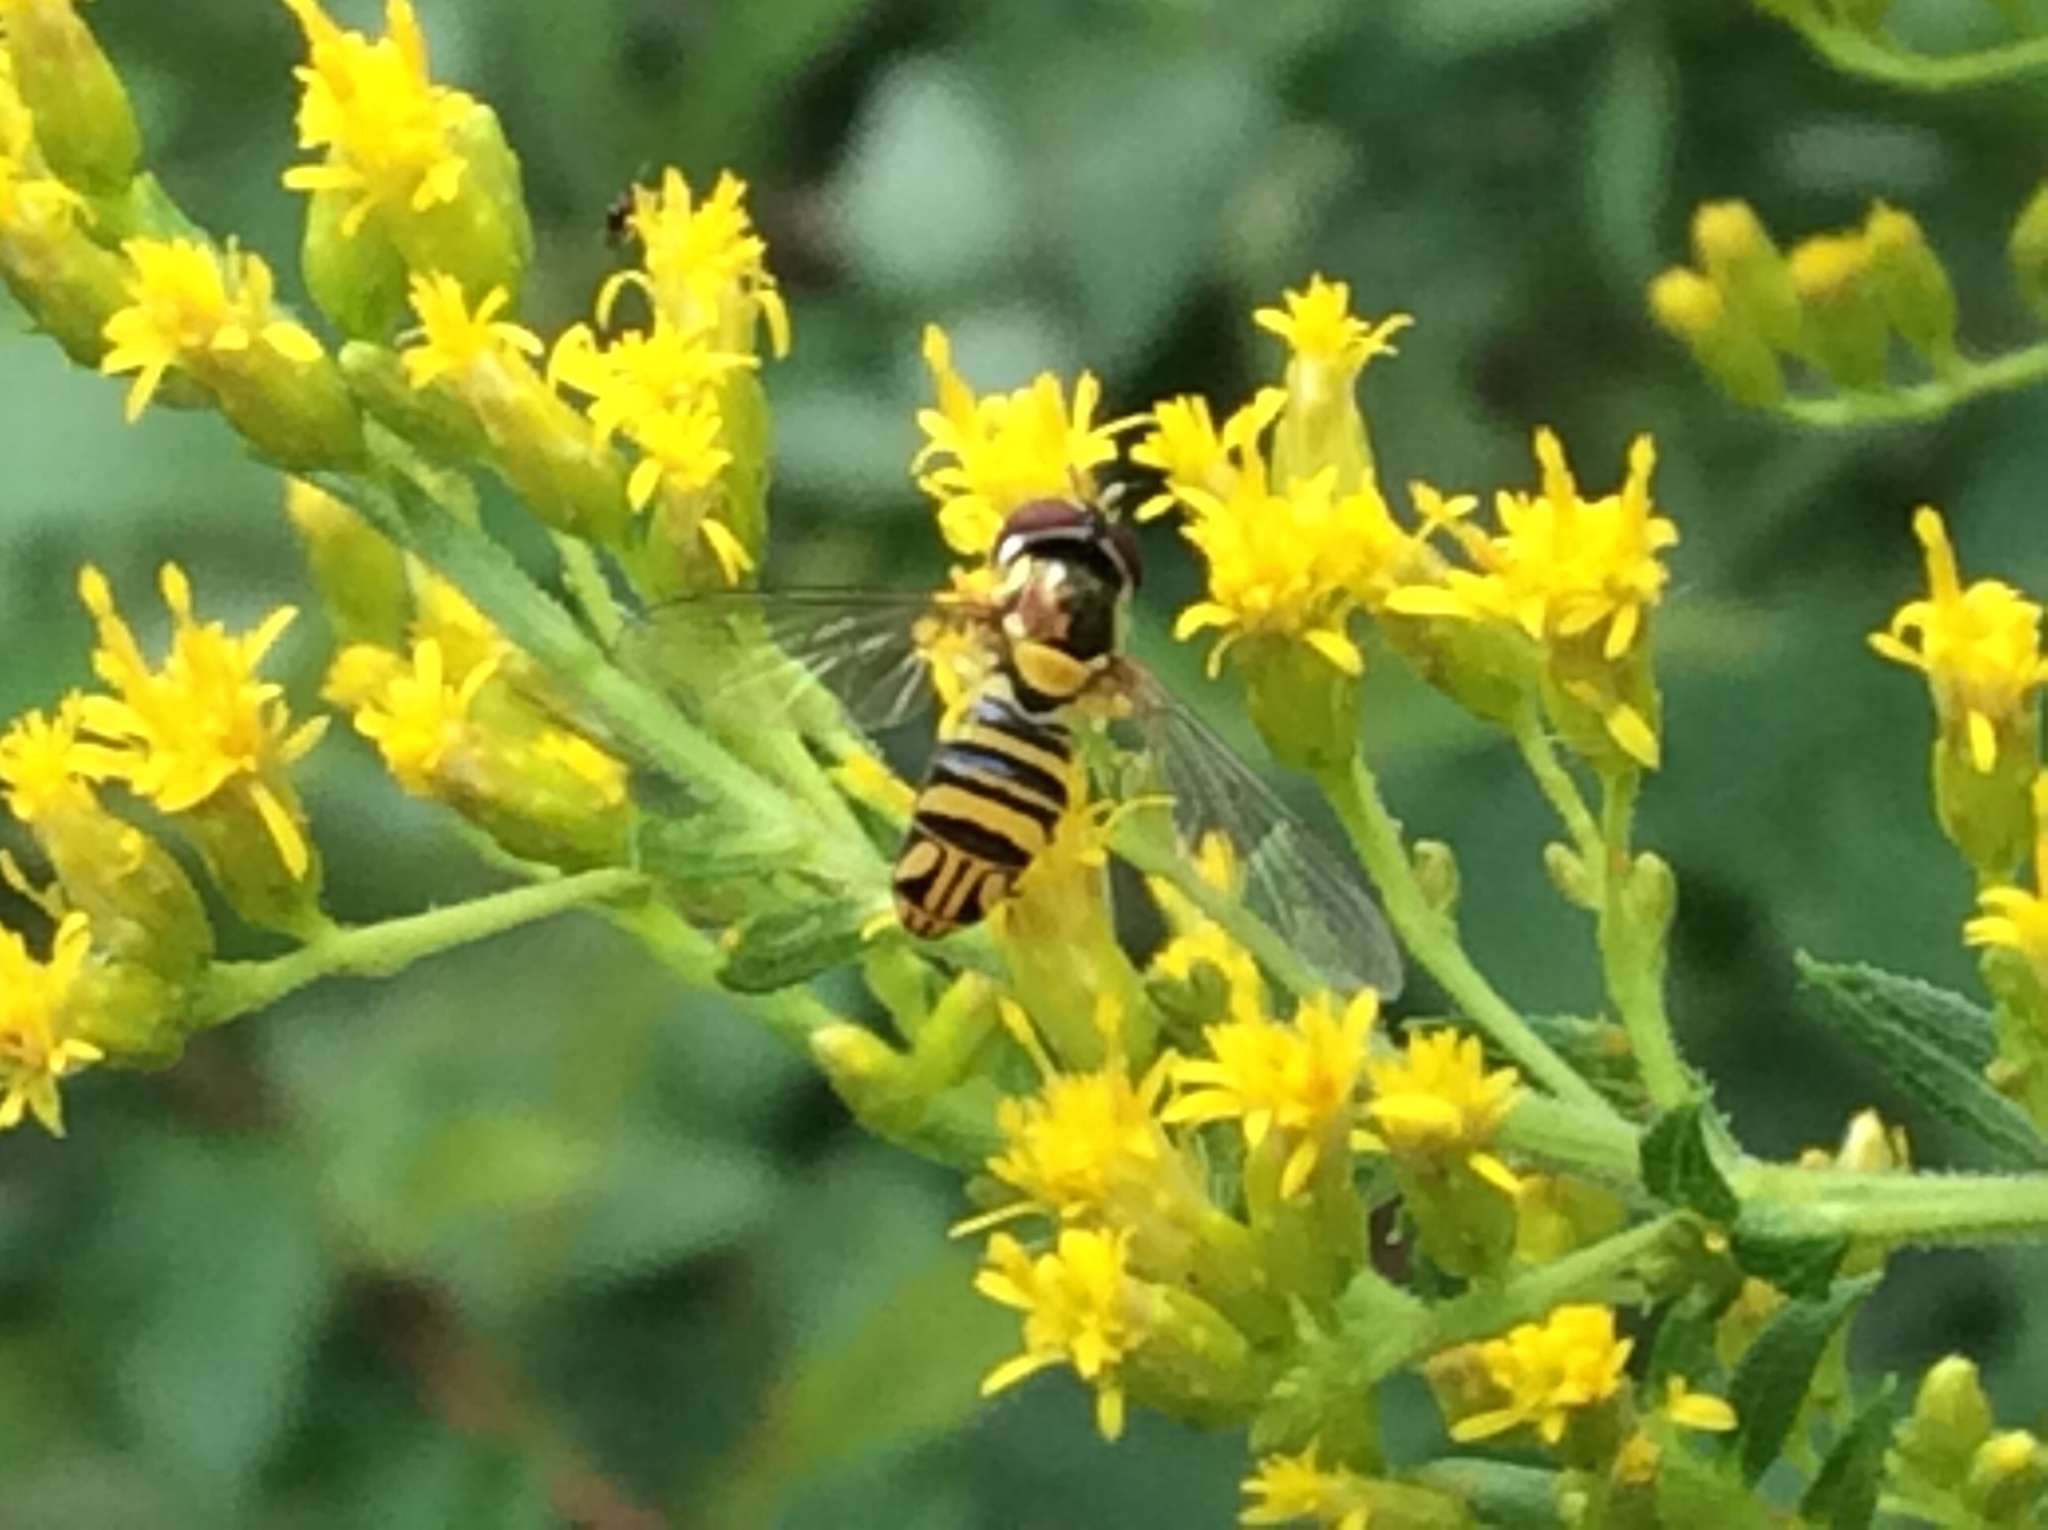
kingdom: Animalia
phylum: Arthropoda
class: Insecta
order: Diptera
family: Syrphidae
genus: Allograpta
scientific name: Allograpta obliqua
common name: Common oblique syrphid
